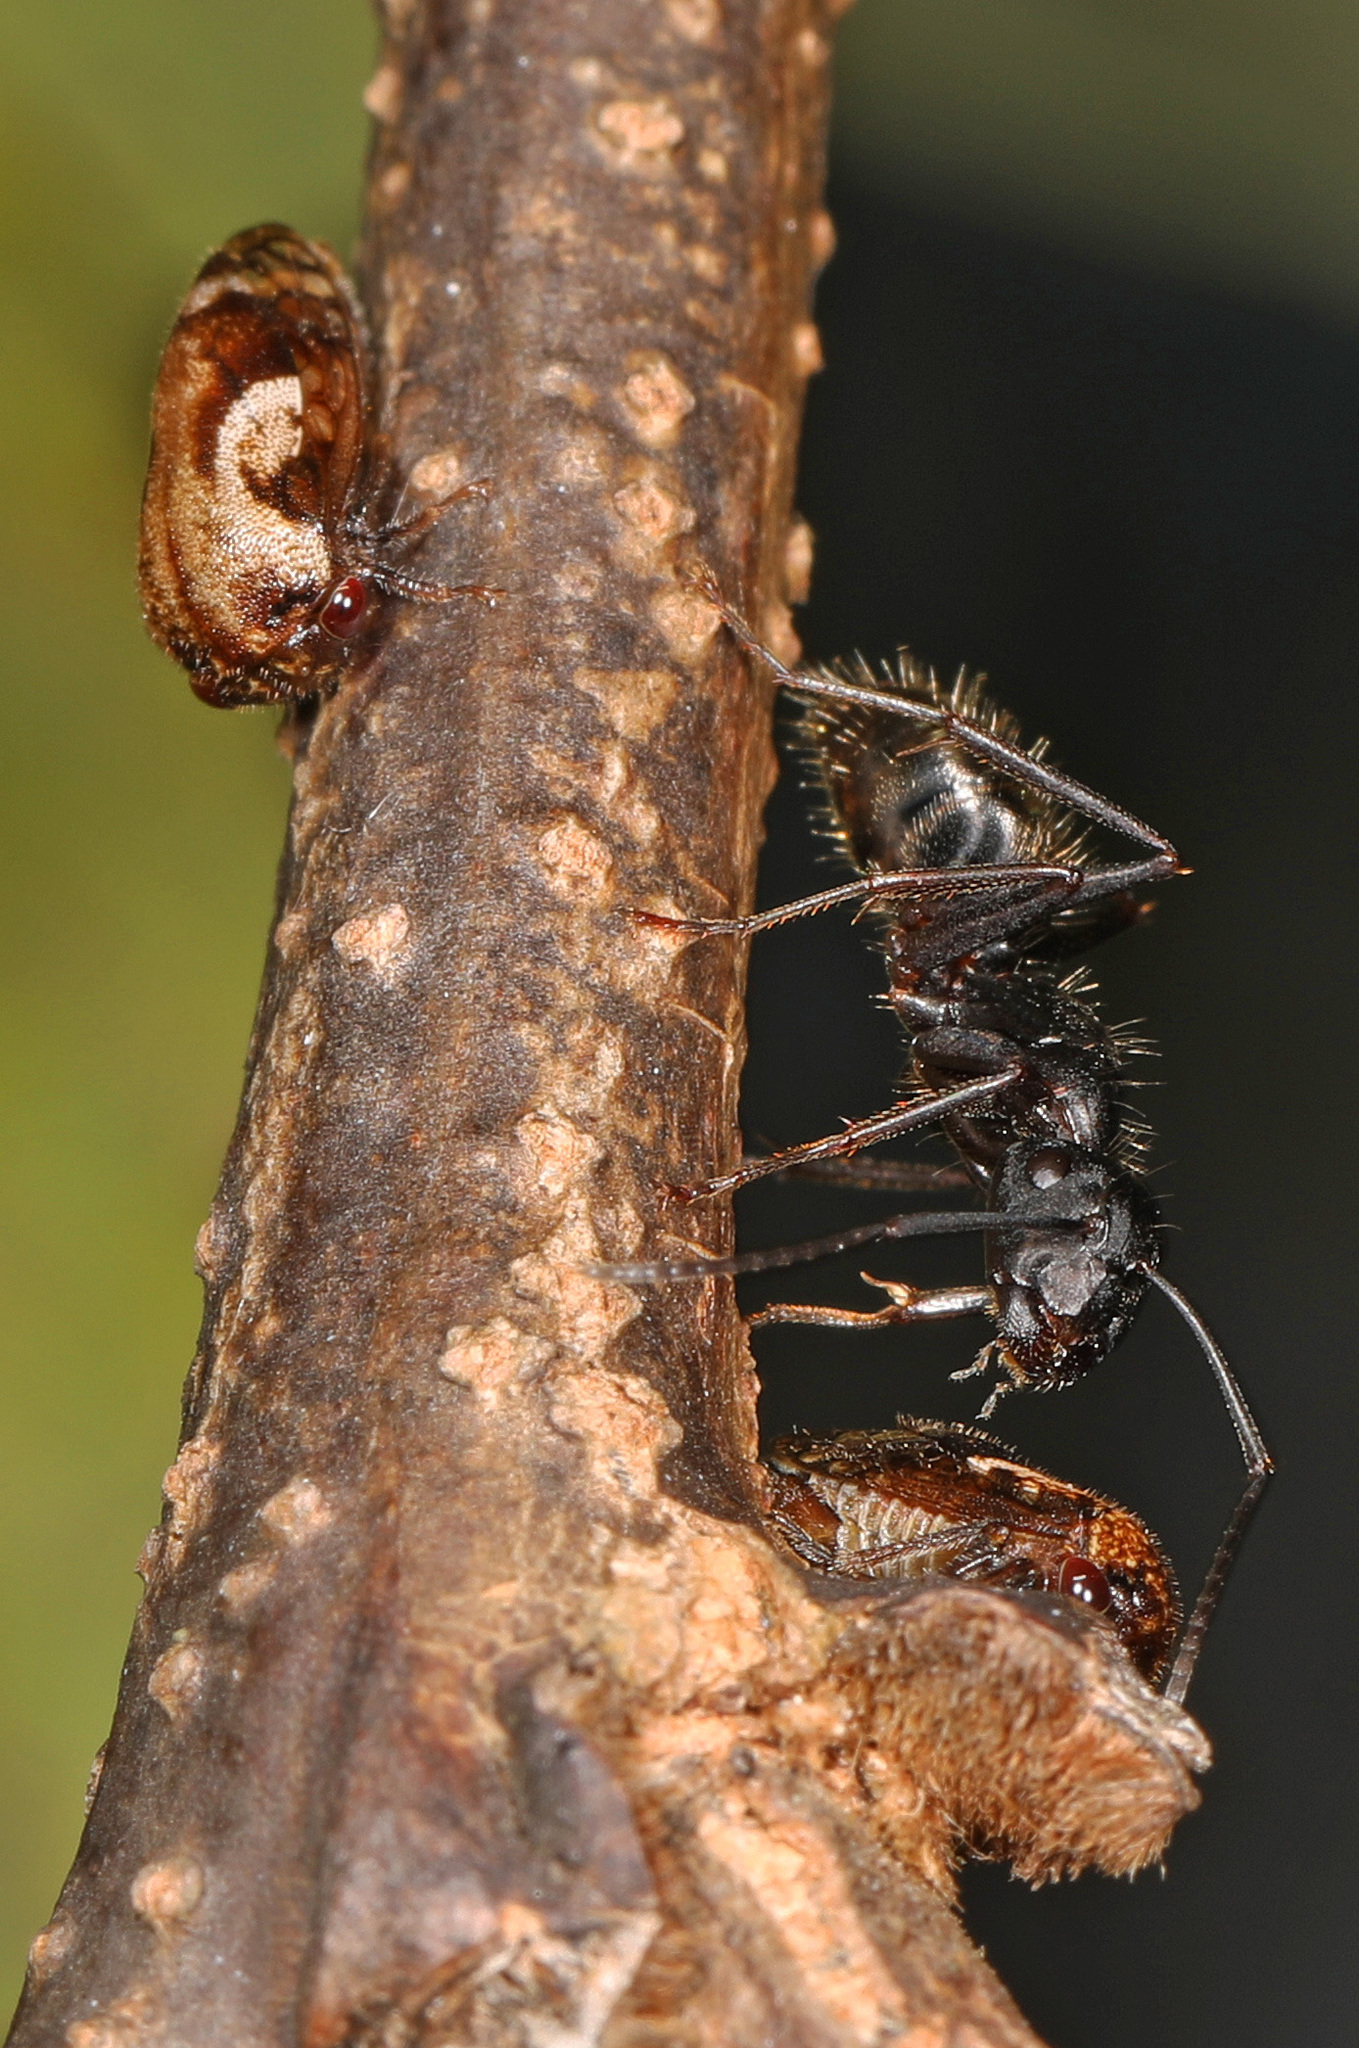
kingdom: Animalia
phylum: Arthropoda
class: Insecta
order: Hymenoptera
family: Formicidae
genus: Camponotus
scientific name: Camponotus pennsylvanicus
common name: Black carpenter ant
